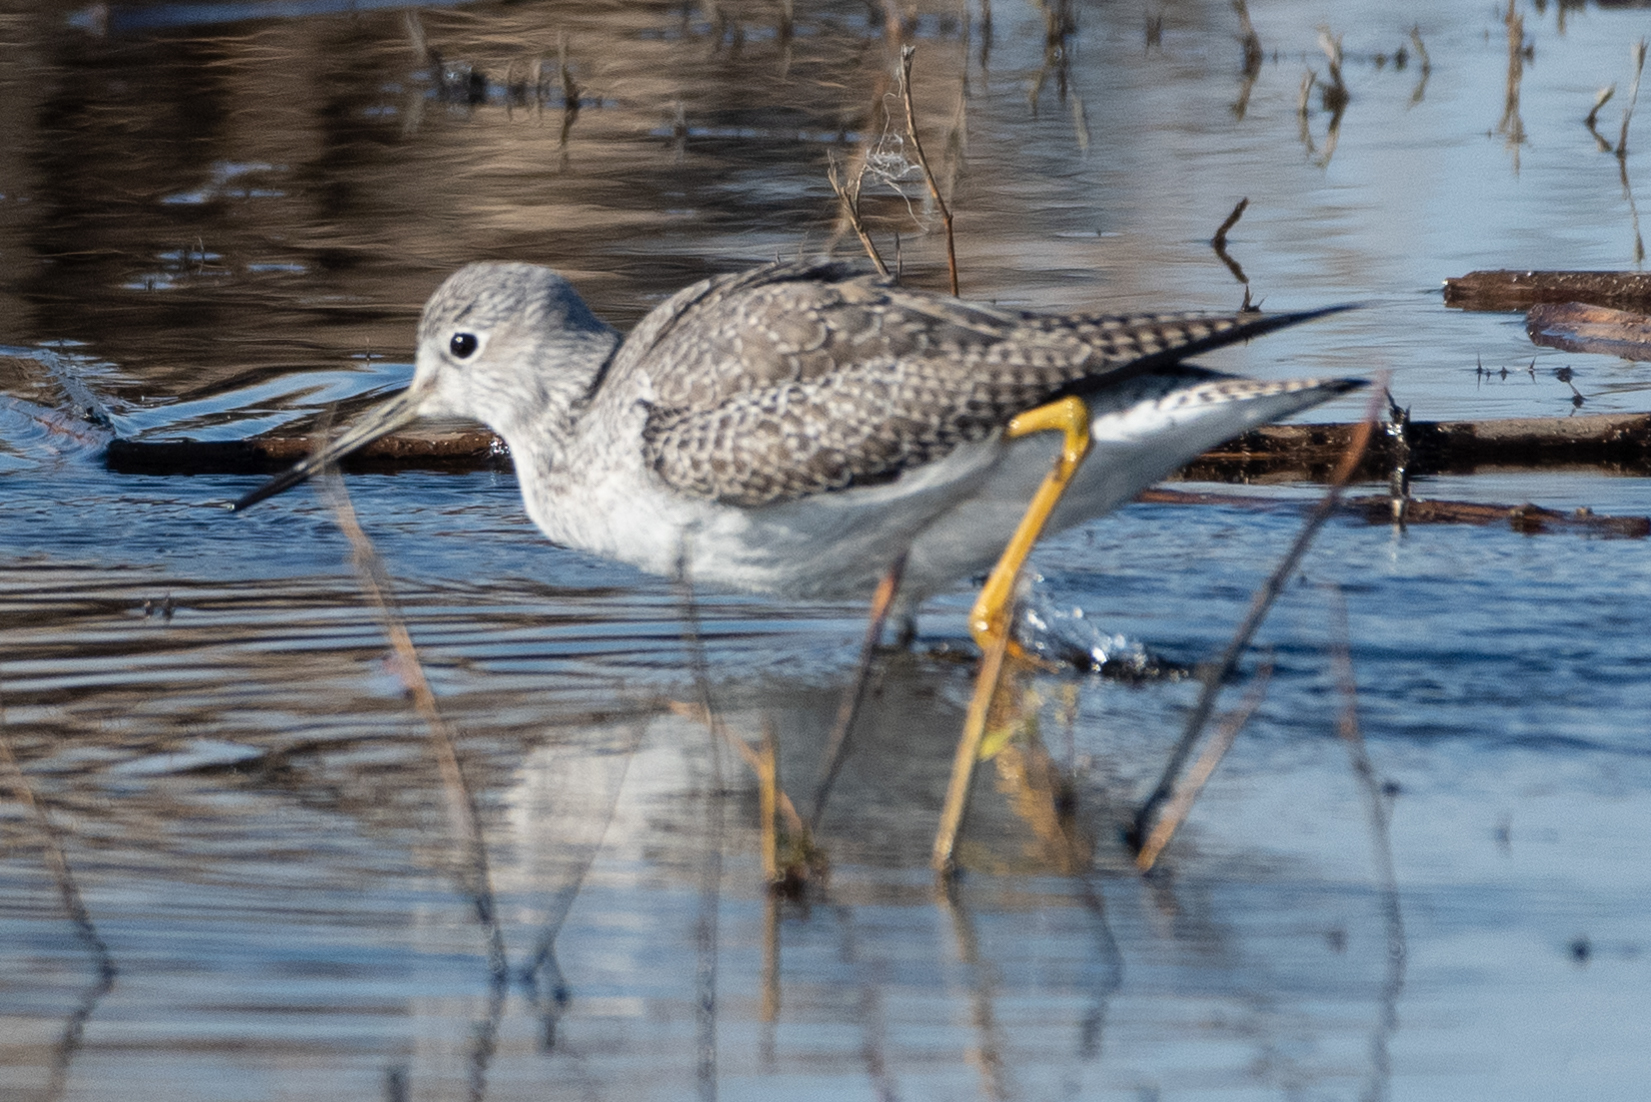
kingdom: Animalia
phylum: Chordata
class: Aves
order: Charadriiformes
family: Scolopacidae
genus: Tringa
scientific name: Tringa melanoleuca
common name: Greater yellowlegs
